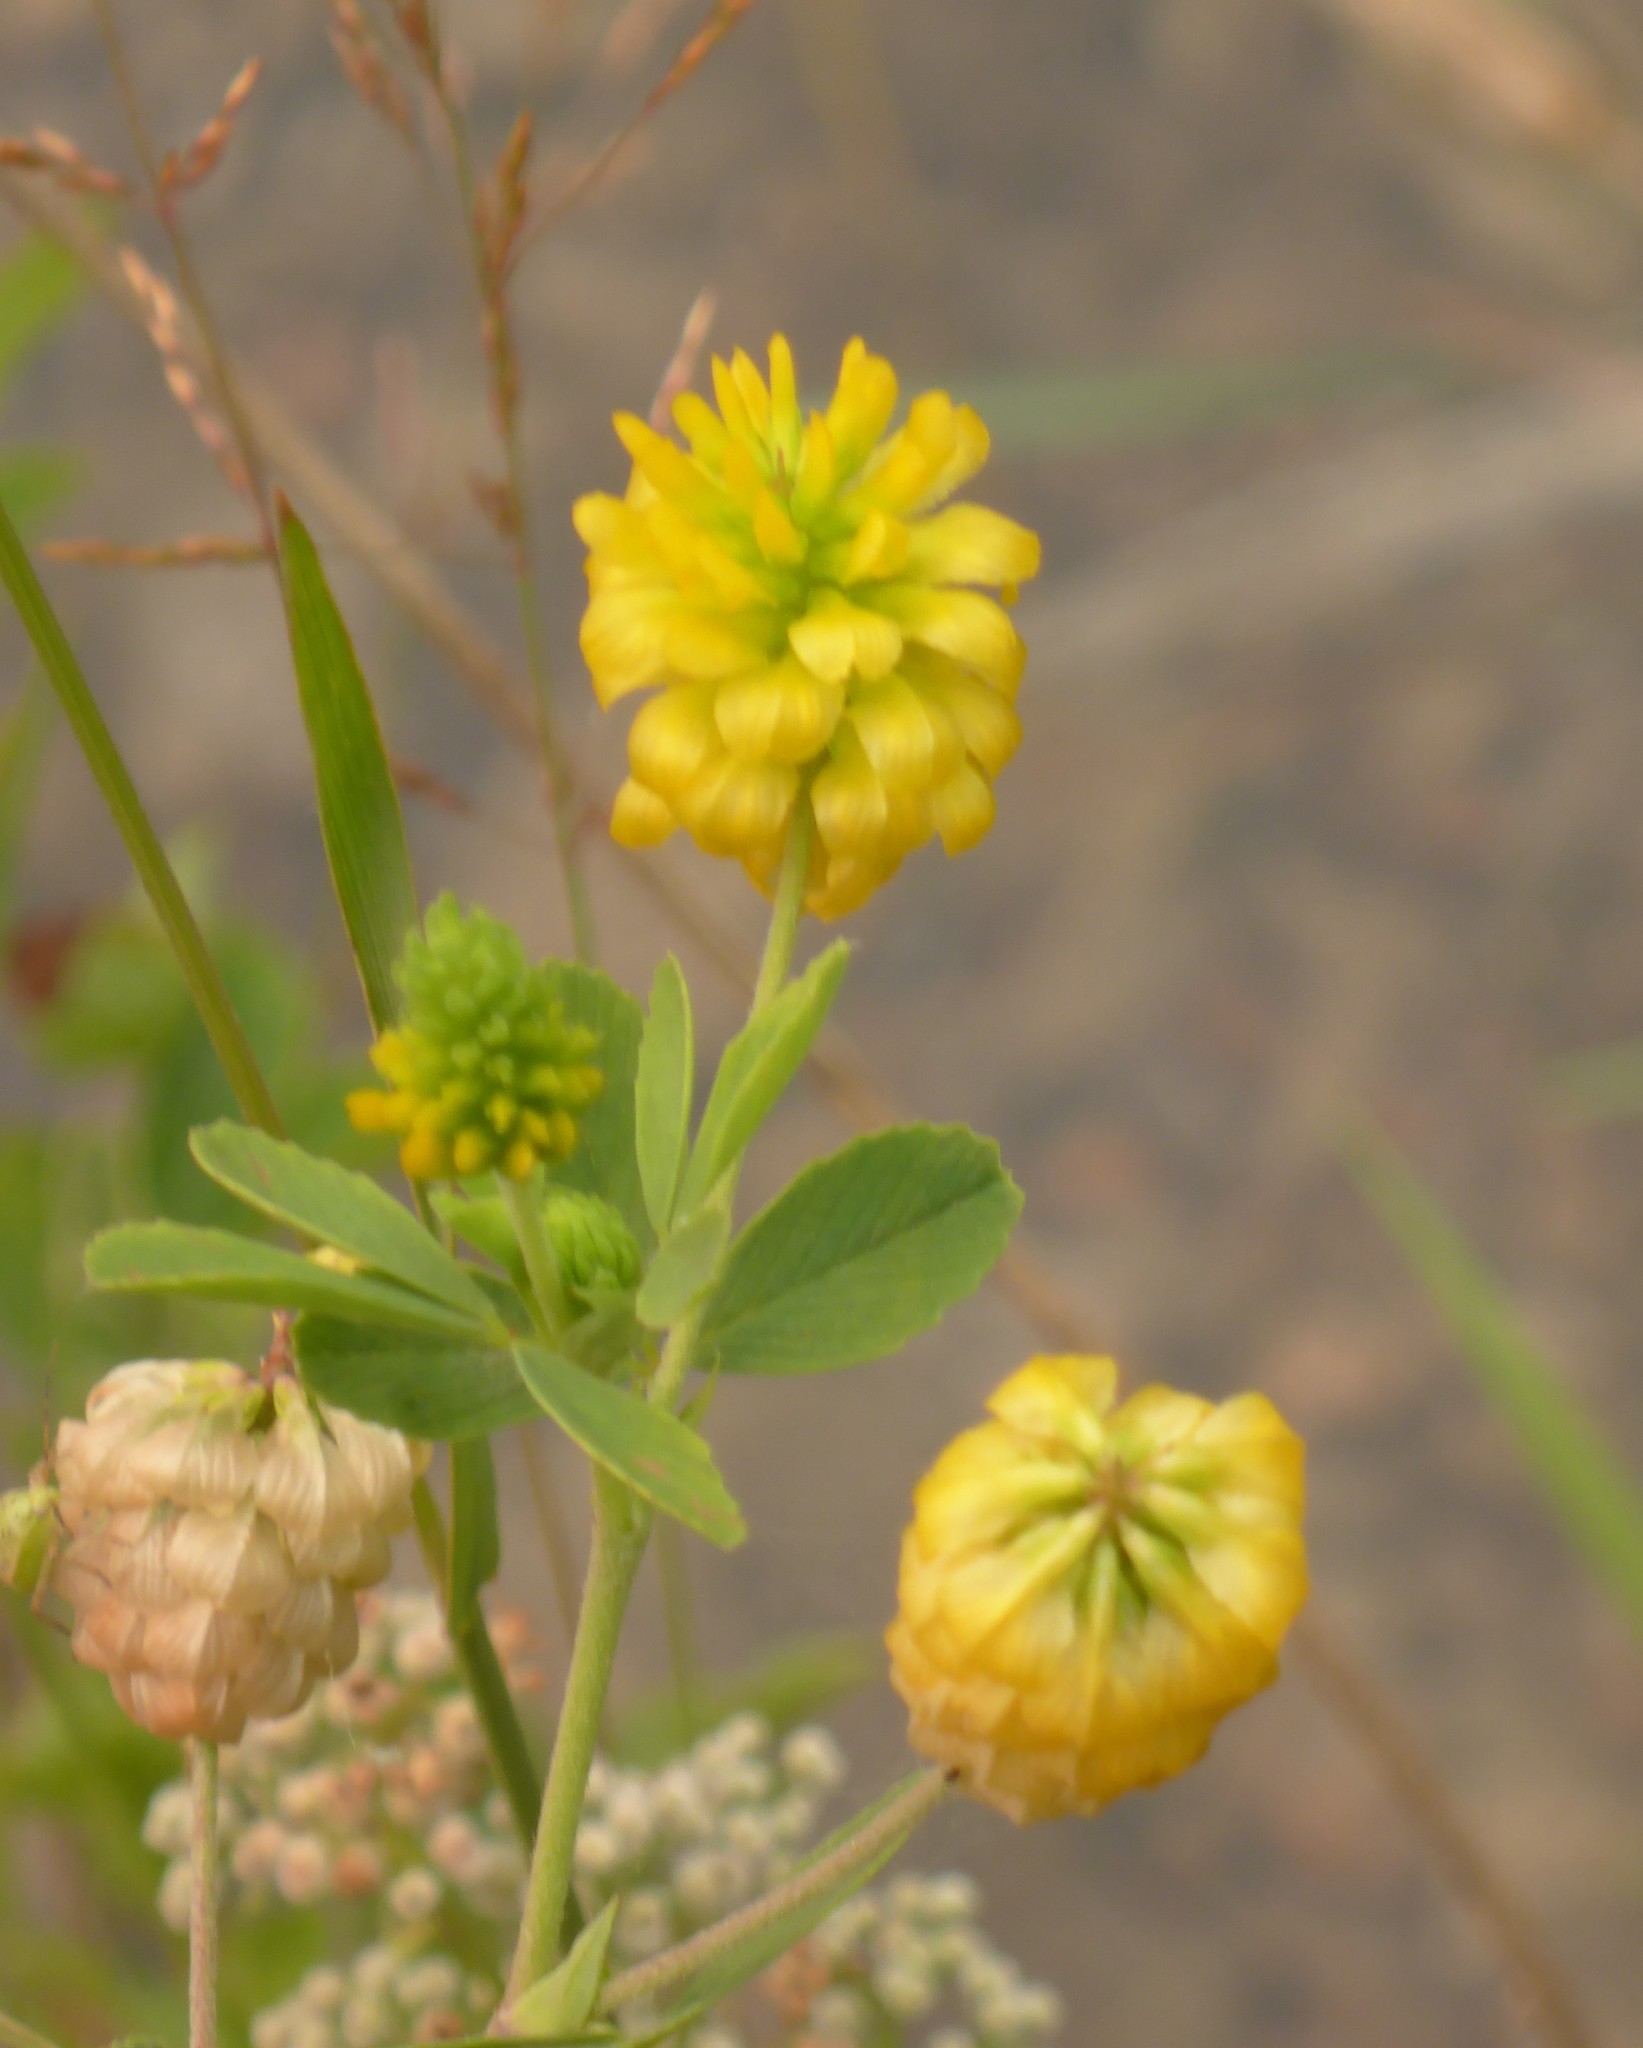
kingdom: Plantae
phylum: Tracheophyta
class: Magnoliopsida
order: Fabales
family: Fabaceae
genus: Trifolium
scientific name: Trifolium aureum
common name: Golden clover
